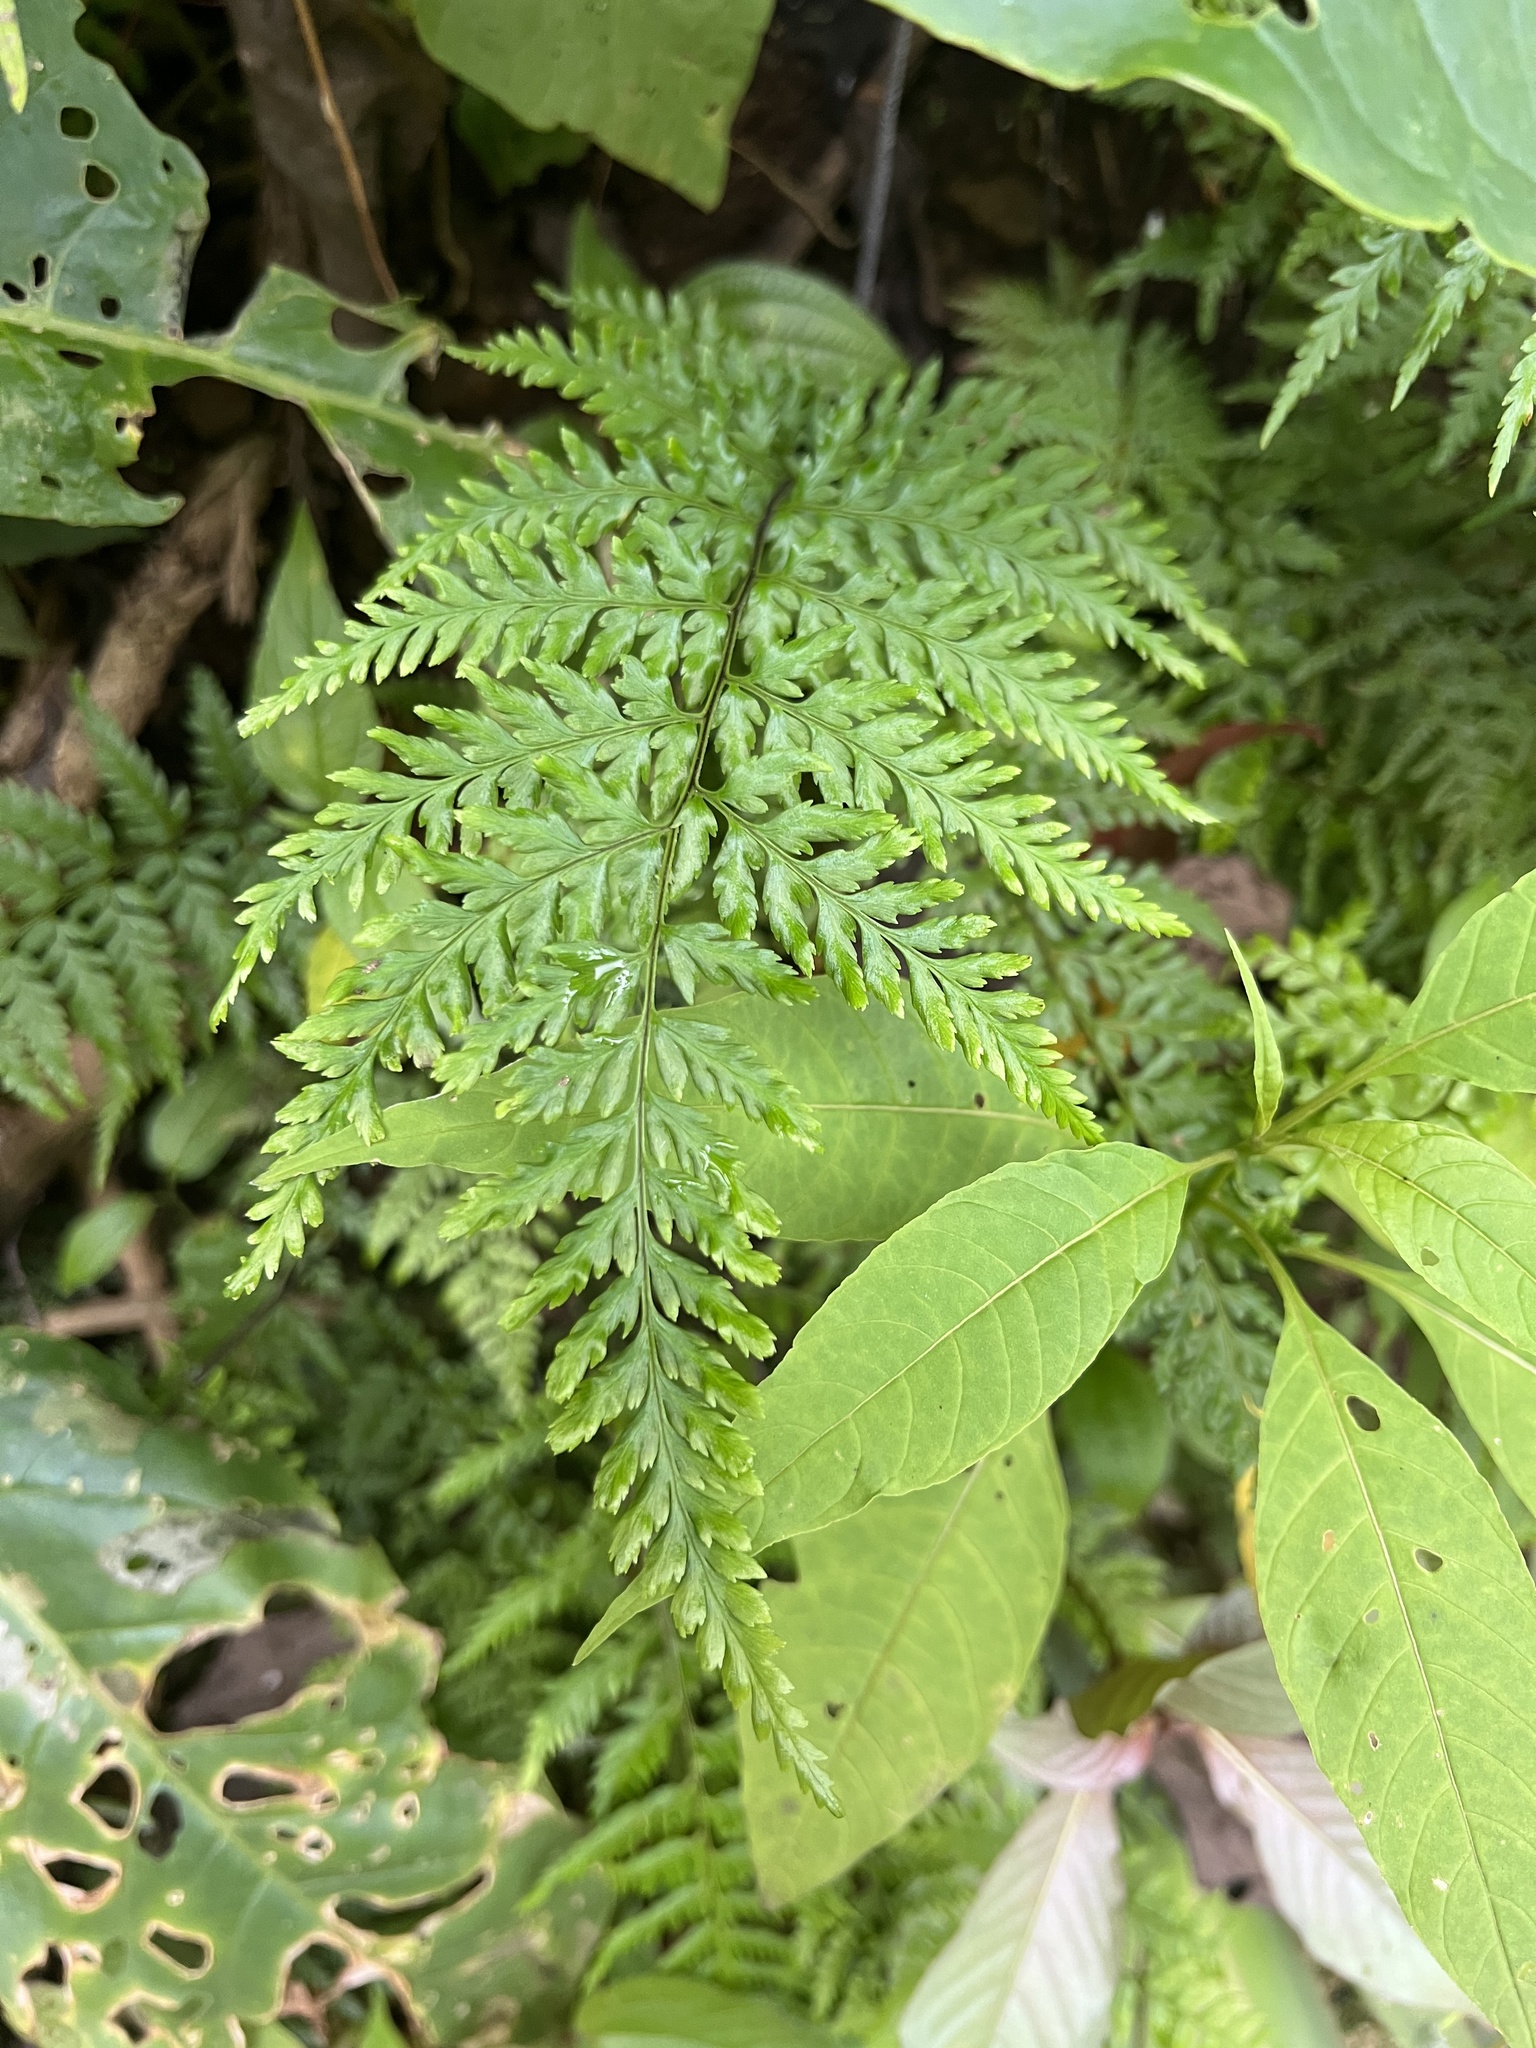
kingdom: Plantae
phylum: Tracheophyta
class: Polypodiopsida
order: Polypodiales
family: Pteridaceae
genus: Pityrogramma
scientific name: Pityrogramma calomelanos
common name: Dixie silverback fern
